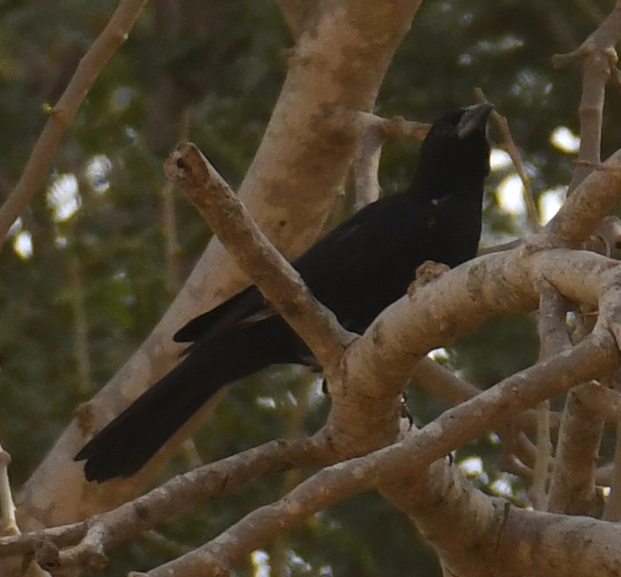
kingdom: Animalia
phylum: Chordata
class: Aves
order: Passeriformes
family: Ploceidae
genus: Bubalornis
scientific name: Bubalornis albirostris
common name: White-billed buffalo weaver
